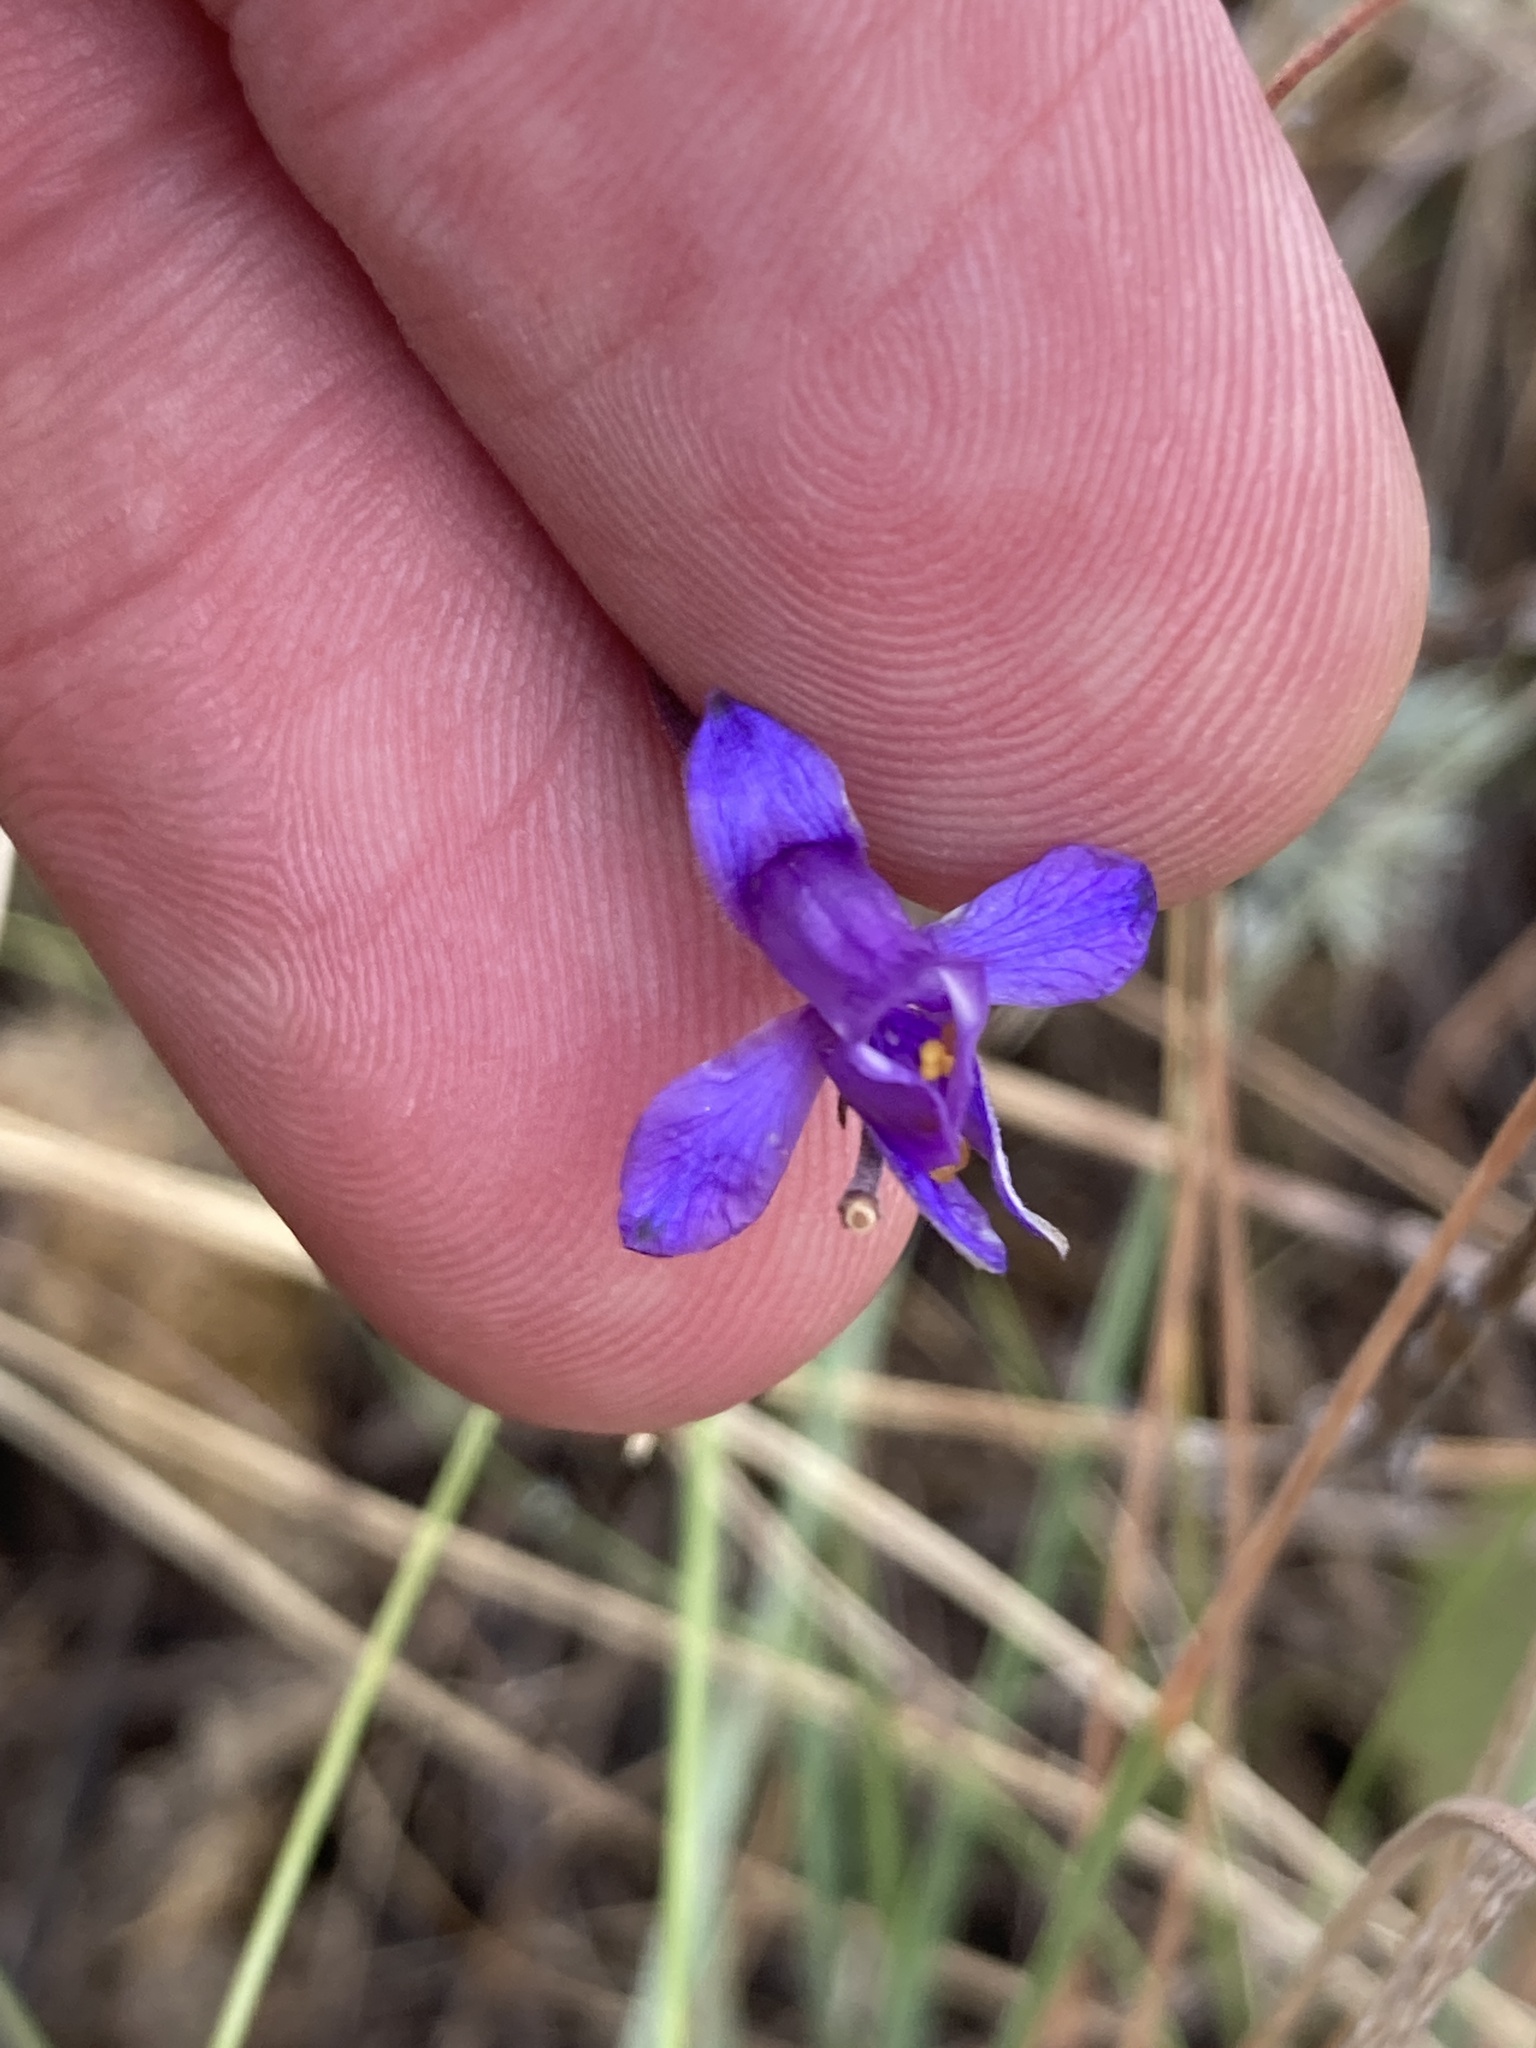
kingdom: Plantae
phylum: Tracheophyta
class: Magnoliopsida
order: Ranunculales
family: Ranunculaceae
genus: Delphinium
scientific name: Delphinium consolida
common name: Branching larkspur
